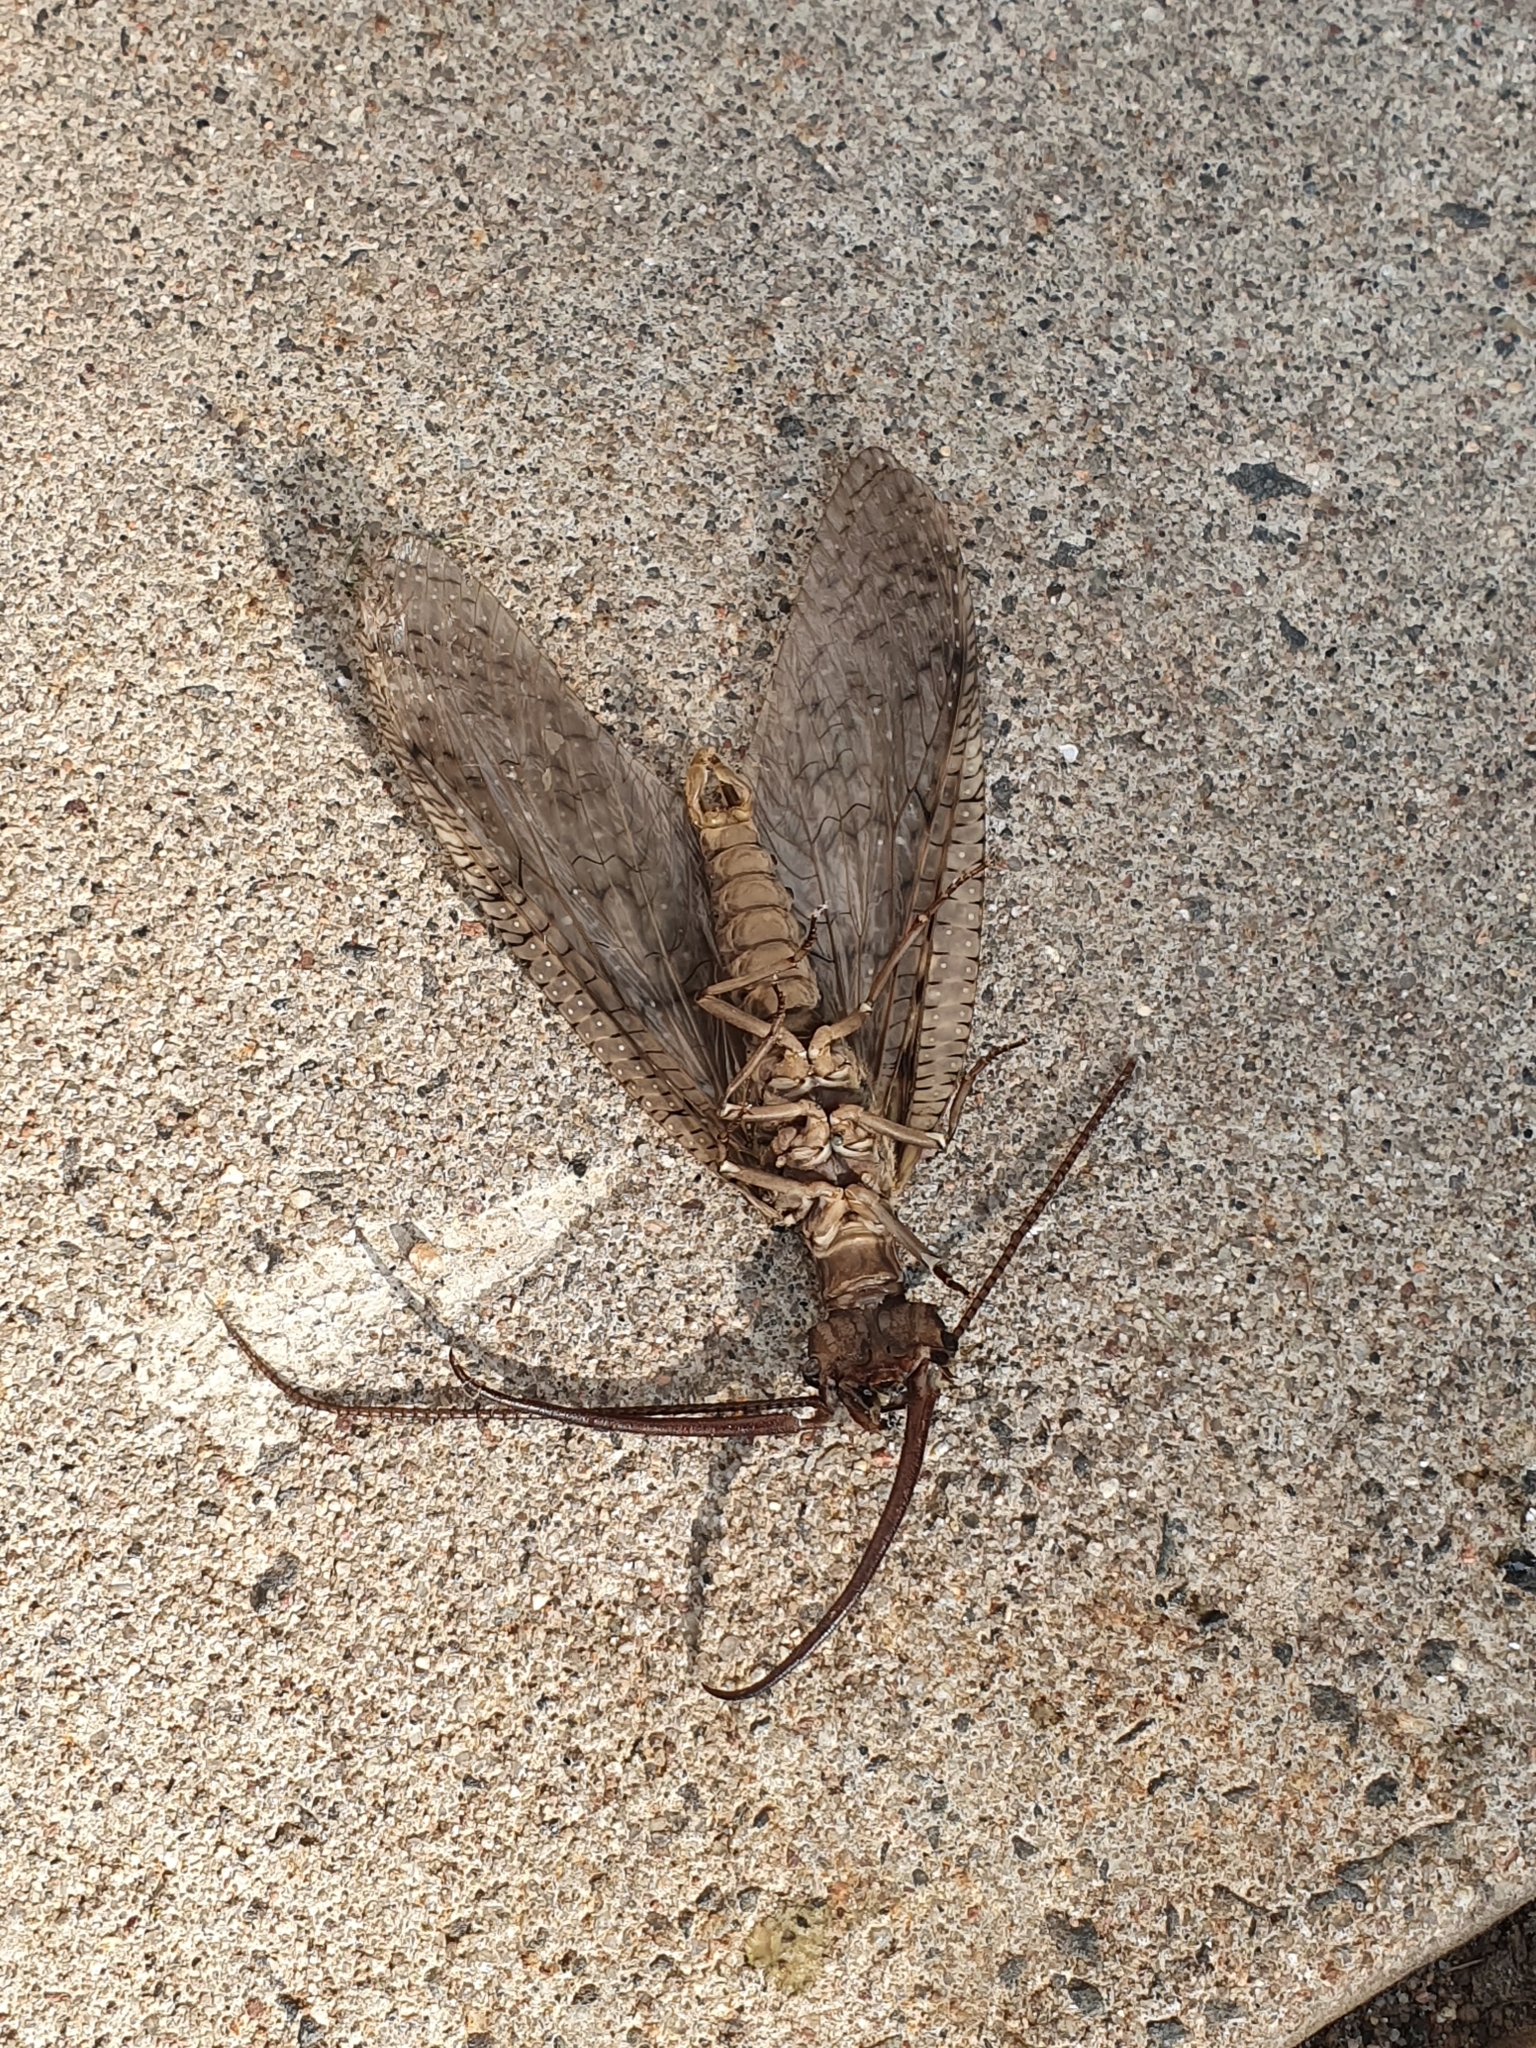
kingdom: Animalia
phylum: Arthropoda
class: Insecta
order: Megaloptera
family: Corydalidae
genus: Corydalus
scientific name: Corydalus cornutus
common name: Dobsonfly
